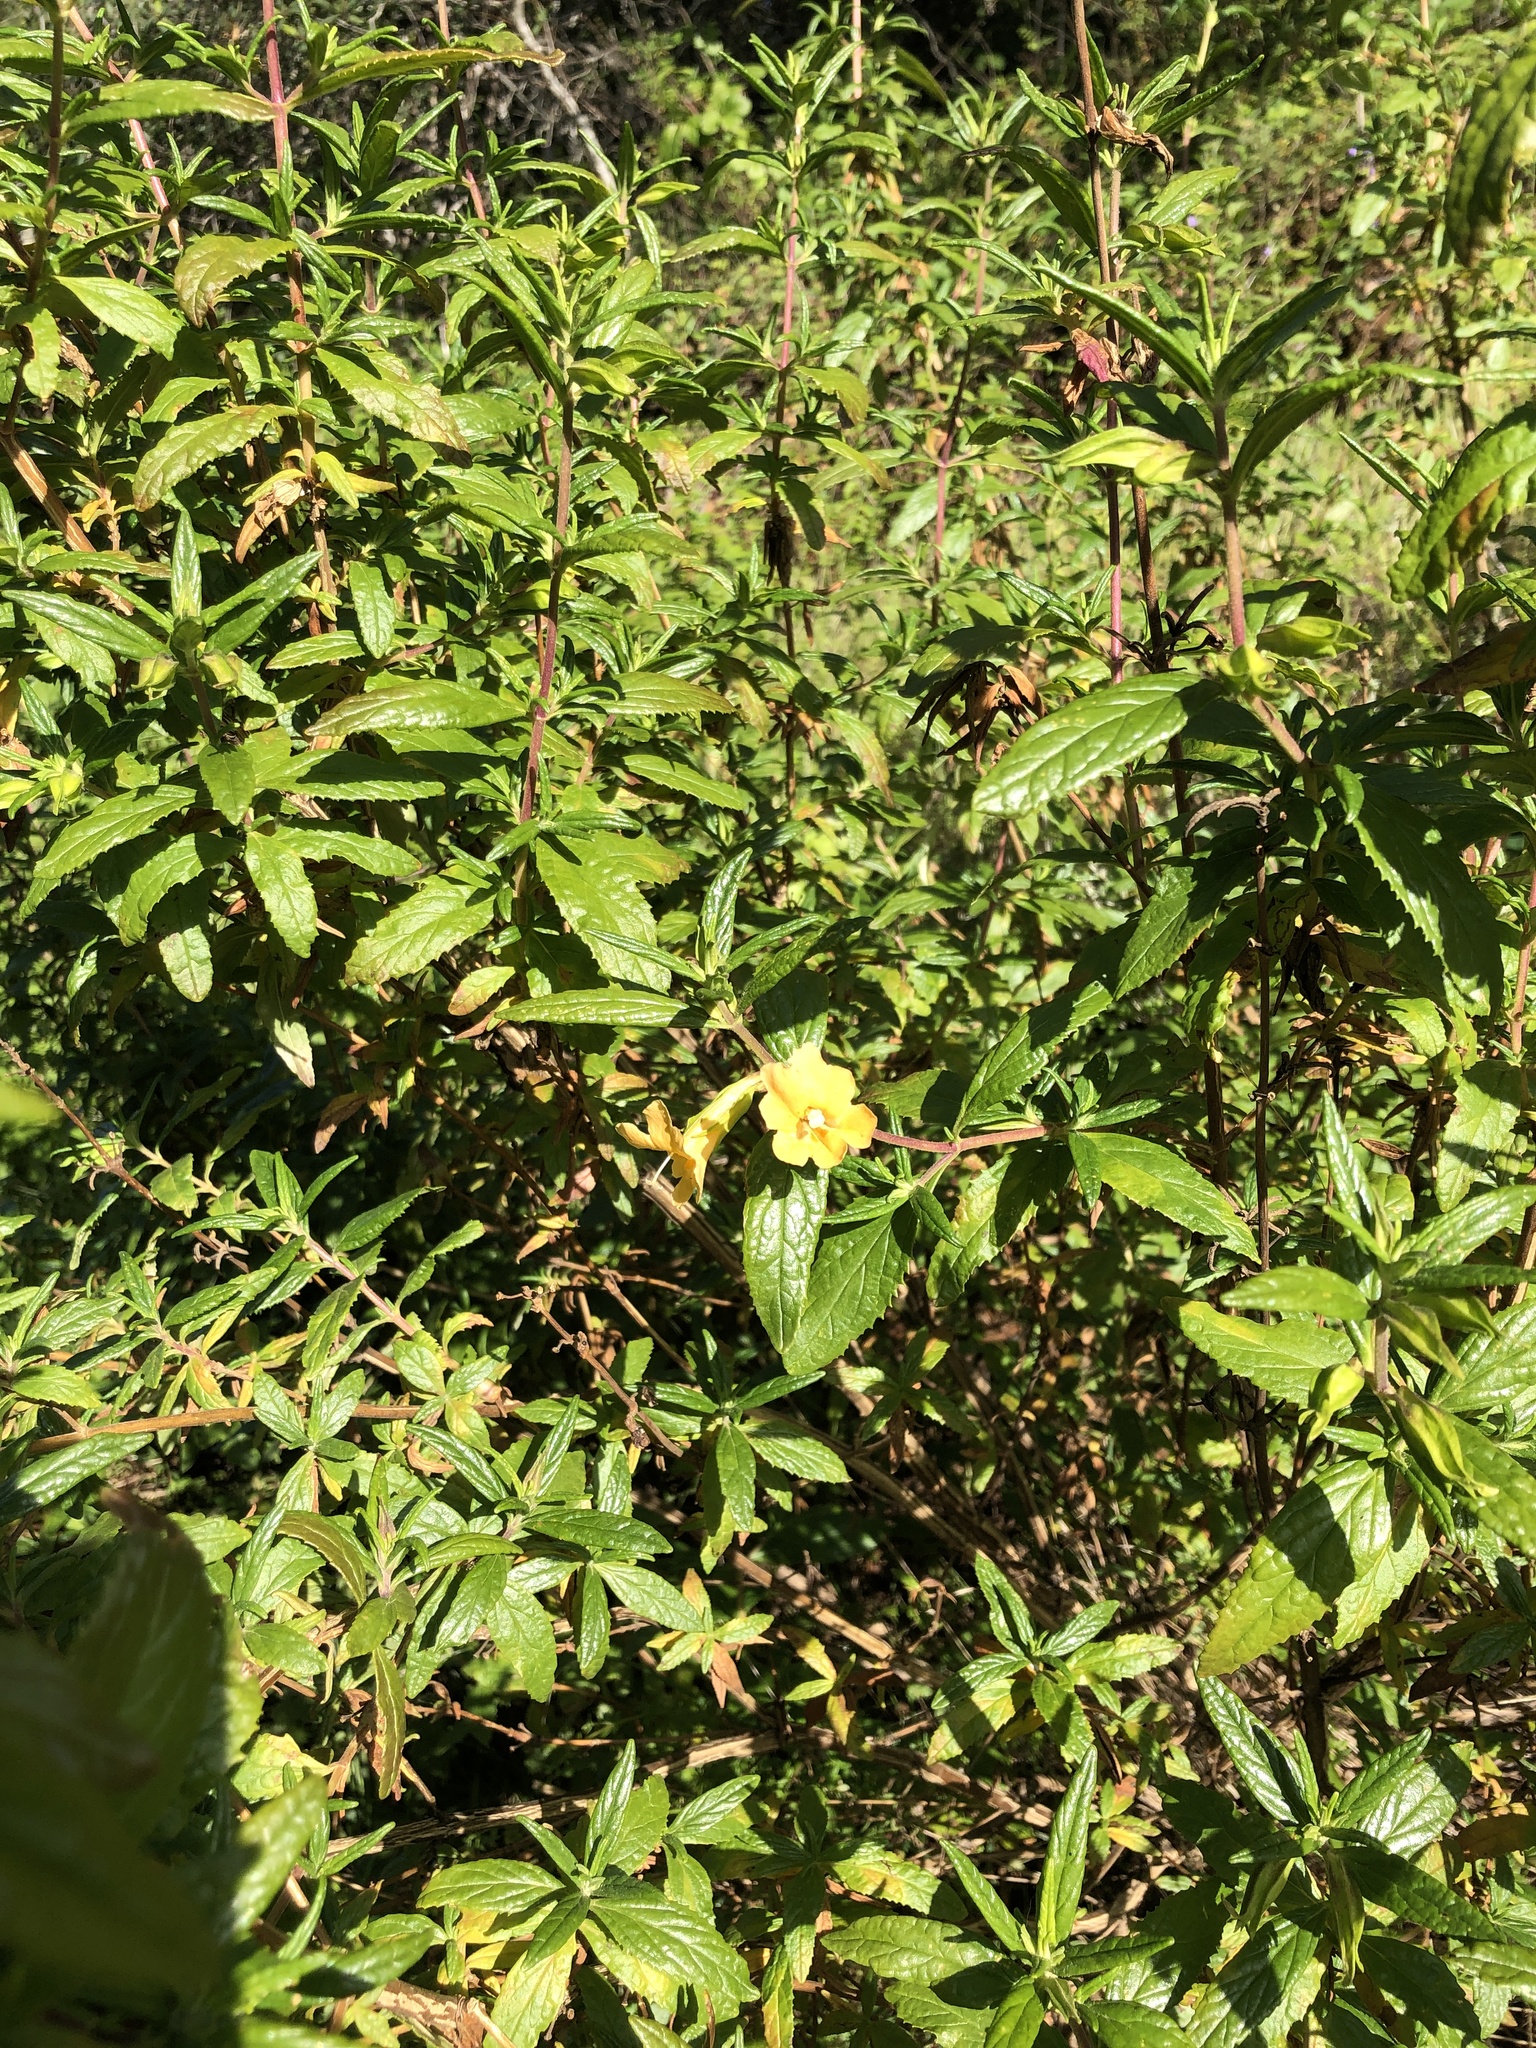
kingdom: Plantae
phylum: Tracheophyta
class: Magnoliopsida
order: Lamiales
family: Phrymaceae
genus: Diplacus
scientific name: Diplacus aurantiacus
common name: Bush monkey-flower
